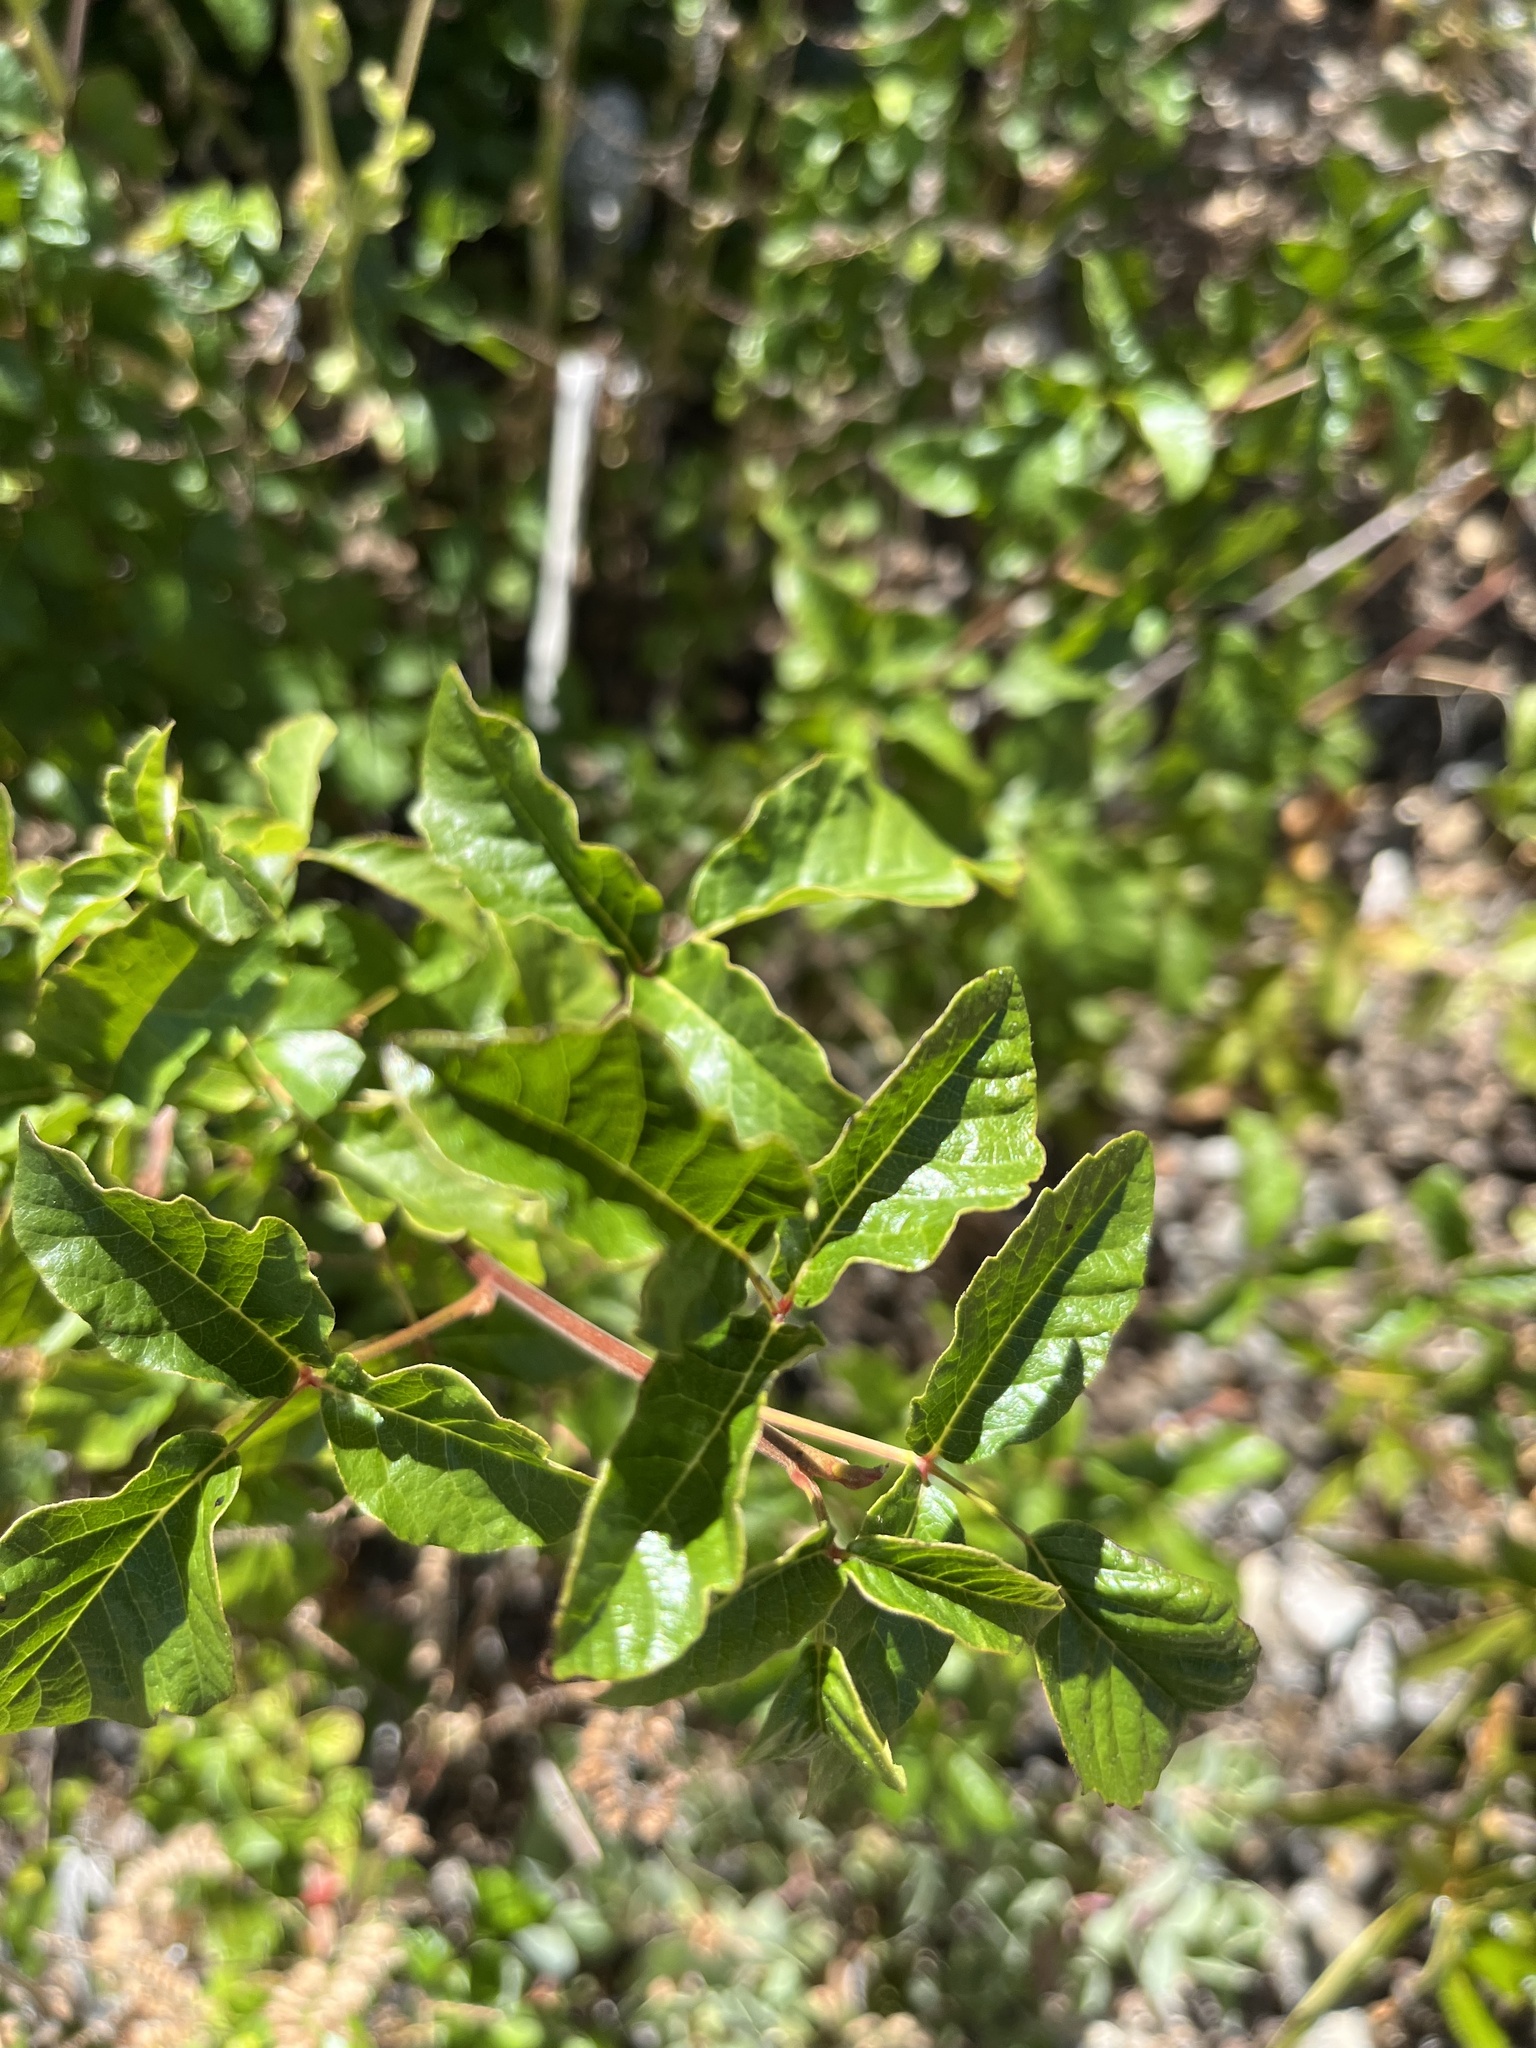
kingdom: Plantae
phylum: Tracheophyta
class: Magnoliopsida
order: Sapindales
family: Anacardiaceae
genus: Toxicodendron
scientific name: Toxicodendron diversilobum
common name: Pacific poison-oak
